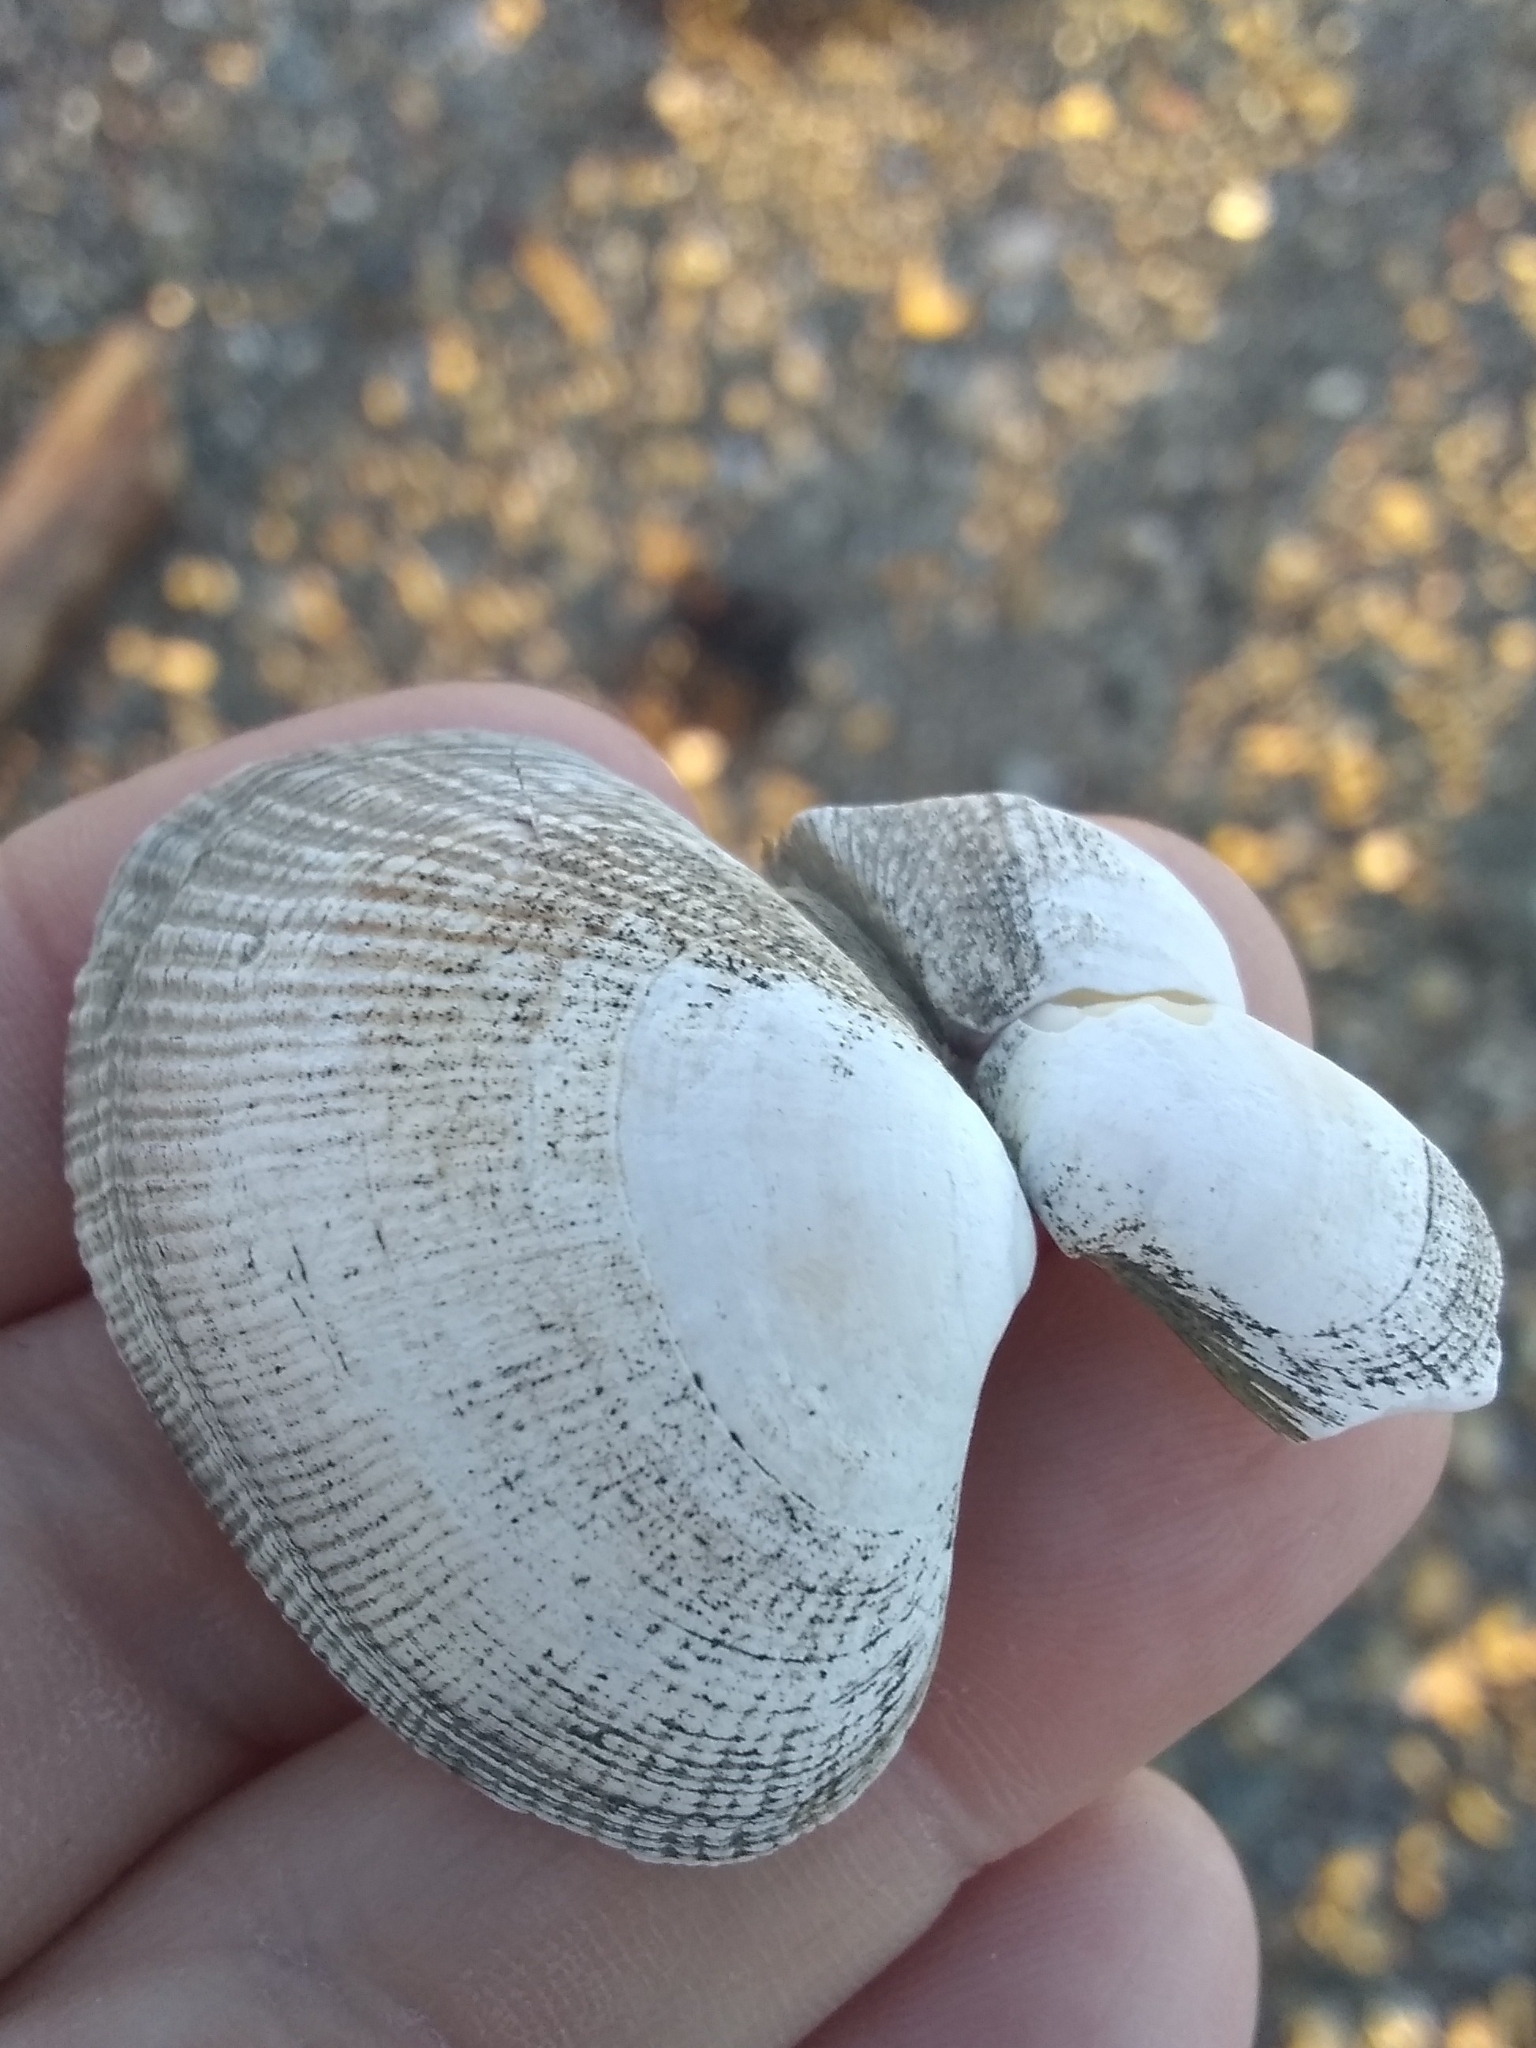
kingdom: Animalia
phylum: Mollusca
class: Bivalvia
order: Venerida
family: Veneridae
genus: Ruditapes
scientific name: Ruditapes philippinarum
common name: Manila clam
